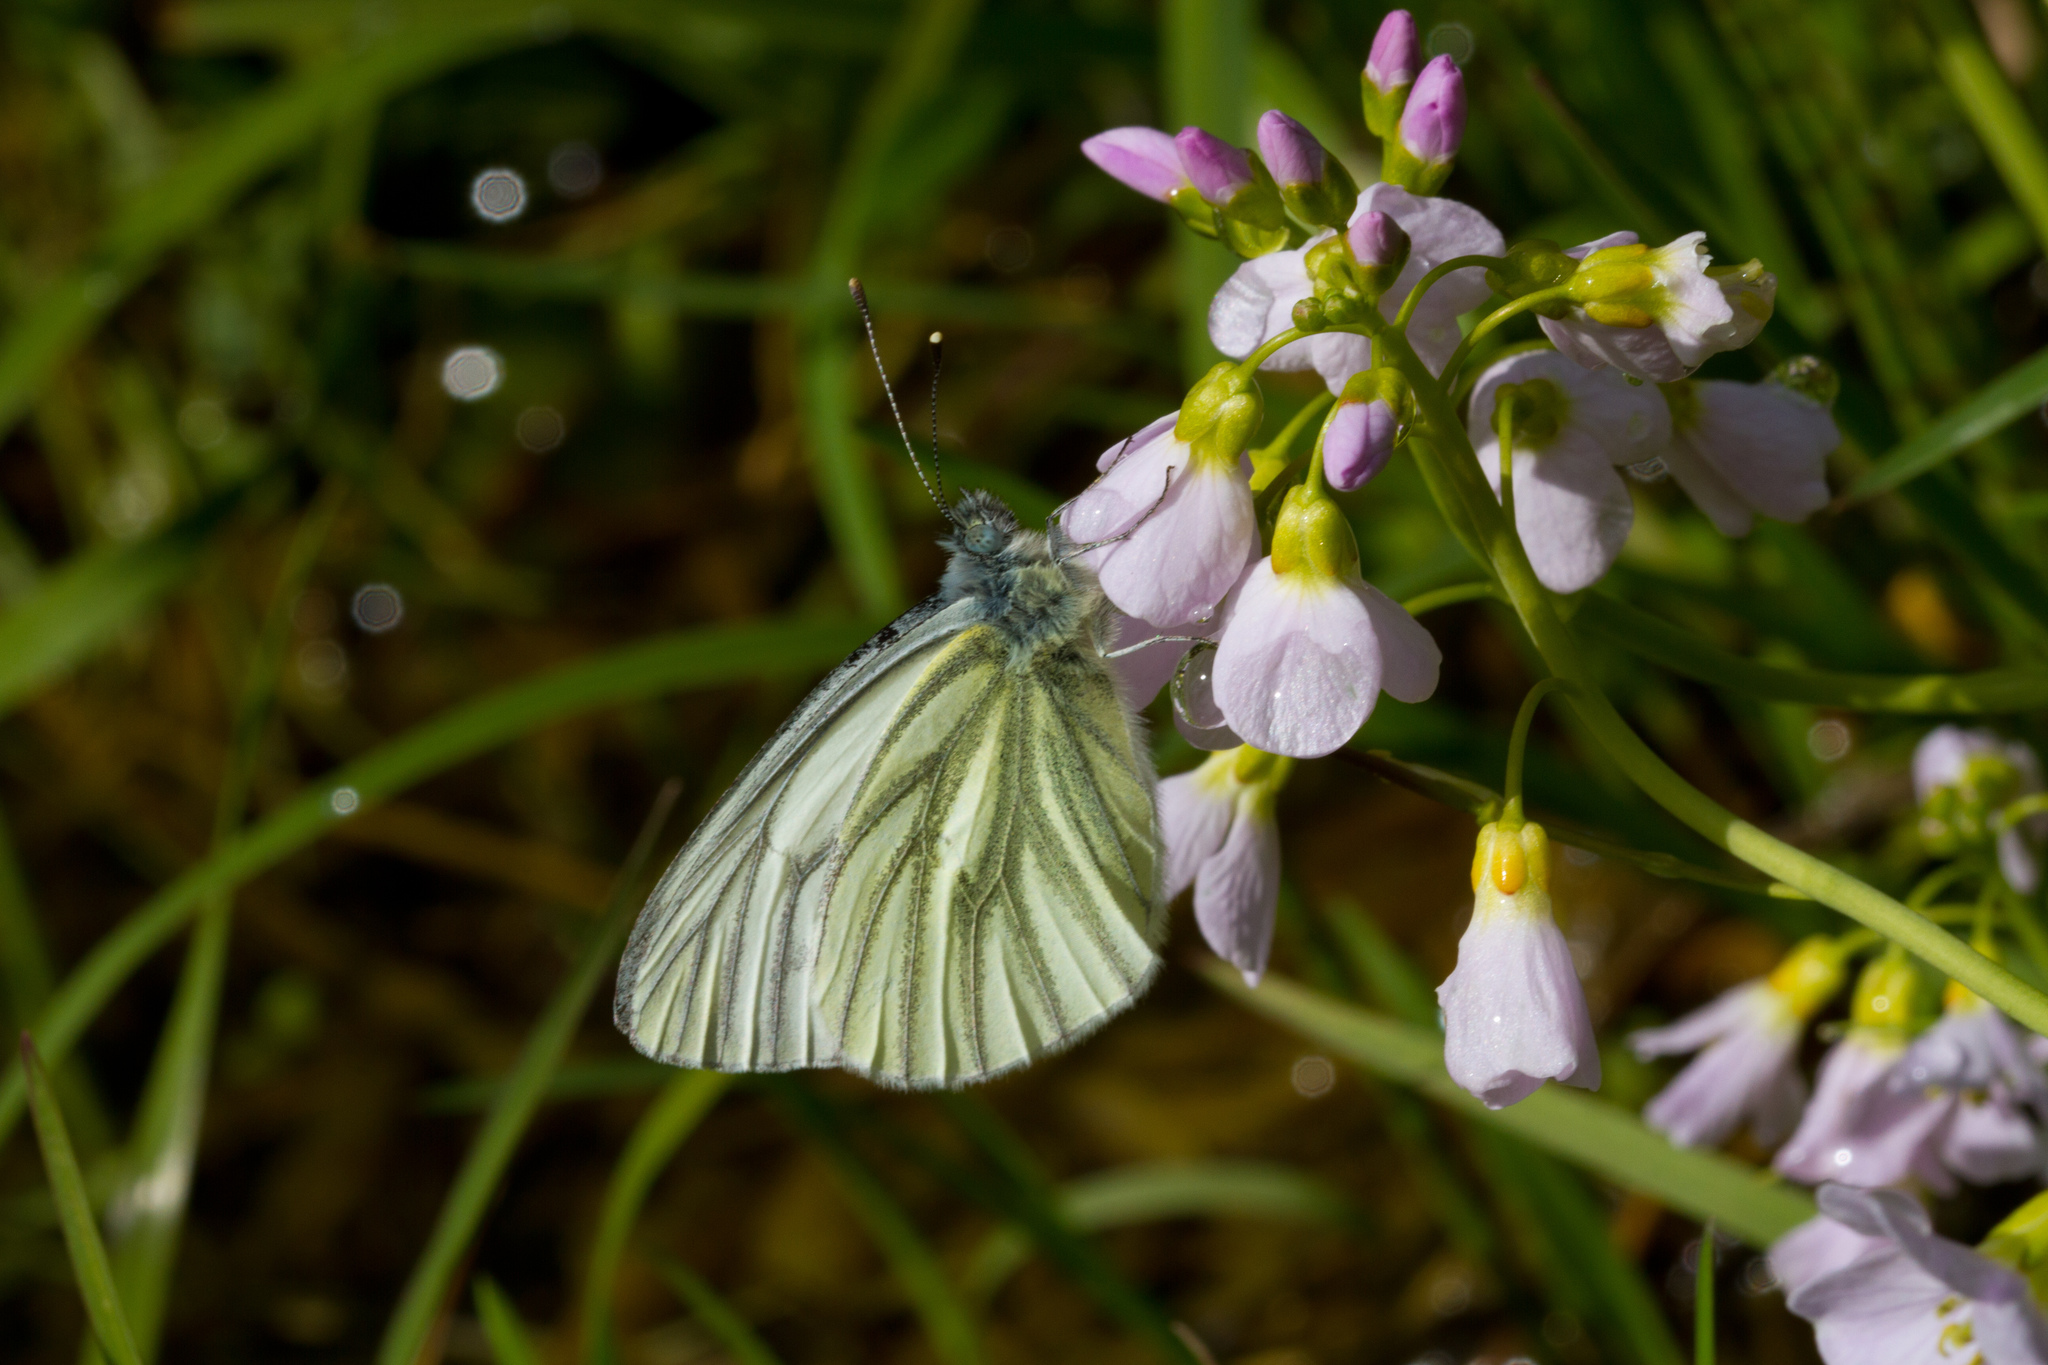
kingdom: Animalia
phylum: Arthropoda
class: Insecta
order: Lepidoptera
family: Pieridae
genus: Pieris
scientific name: Pieris napi
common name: Green-veined white
